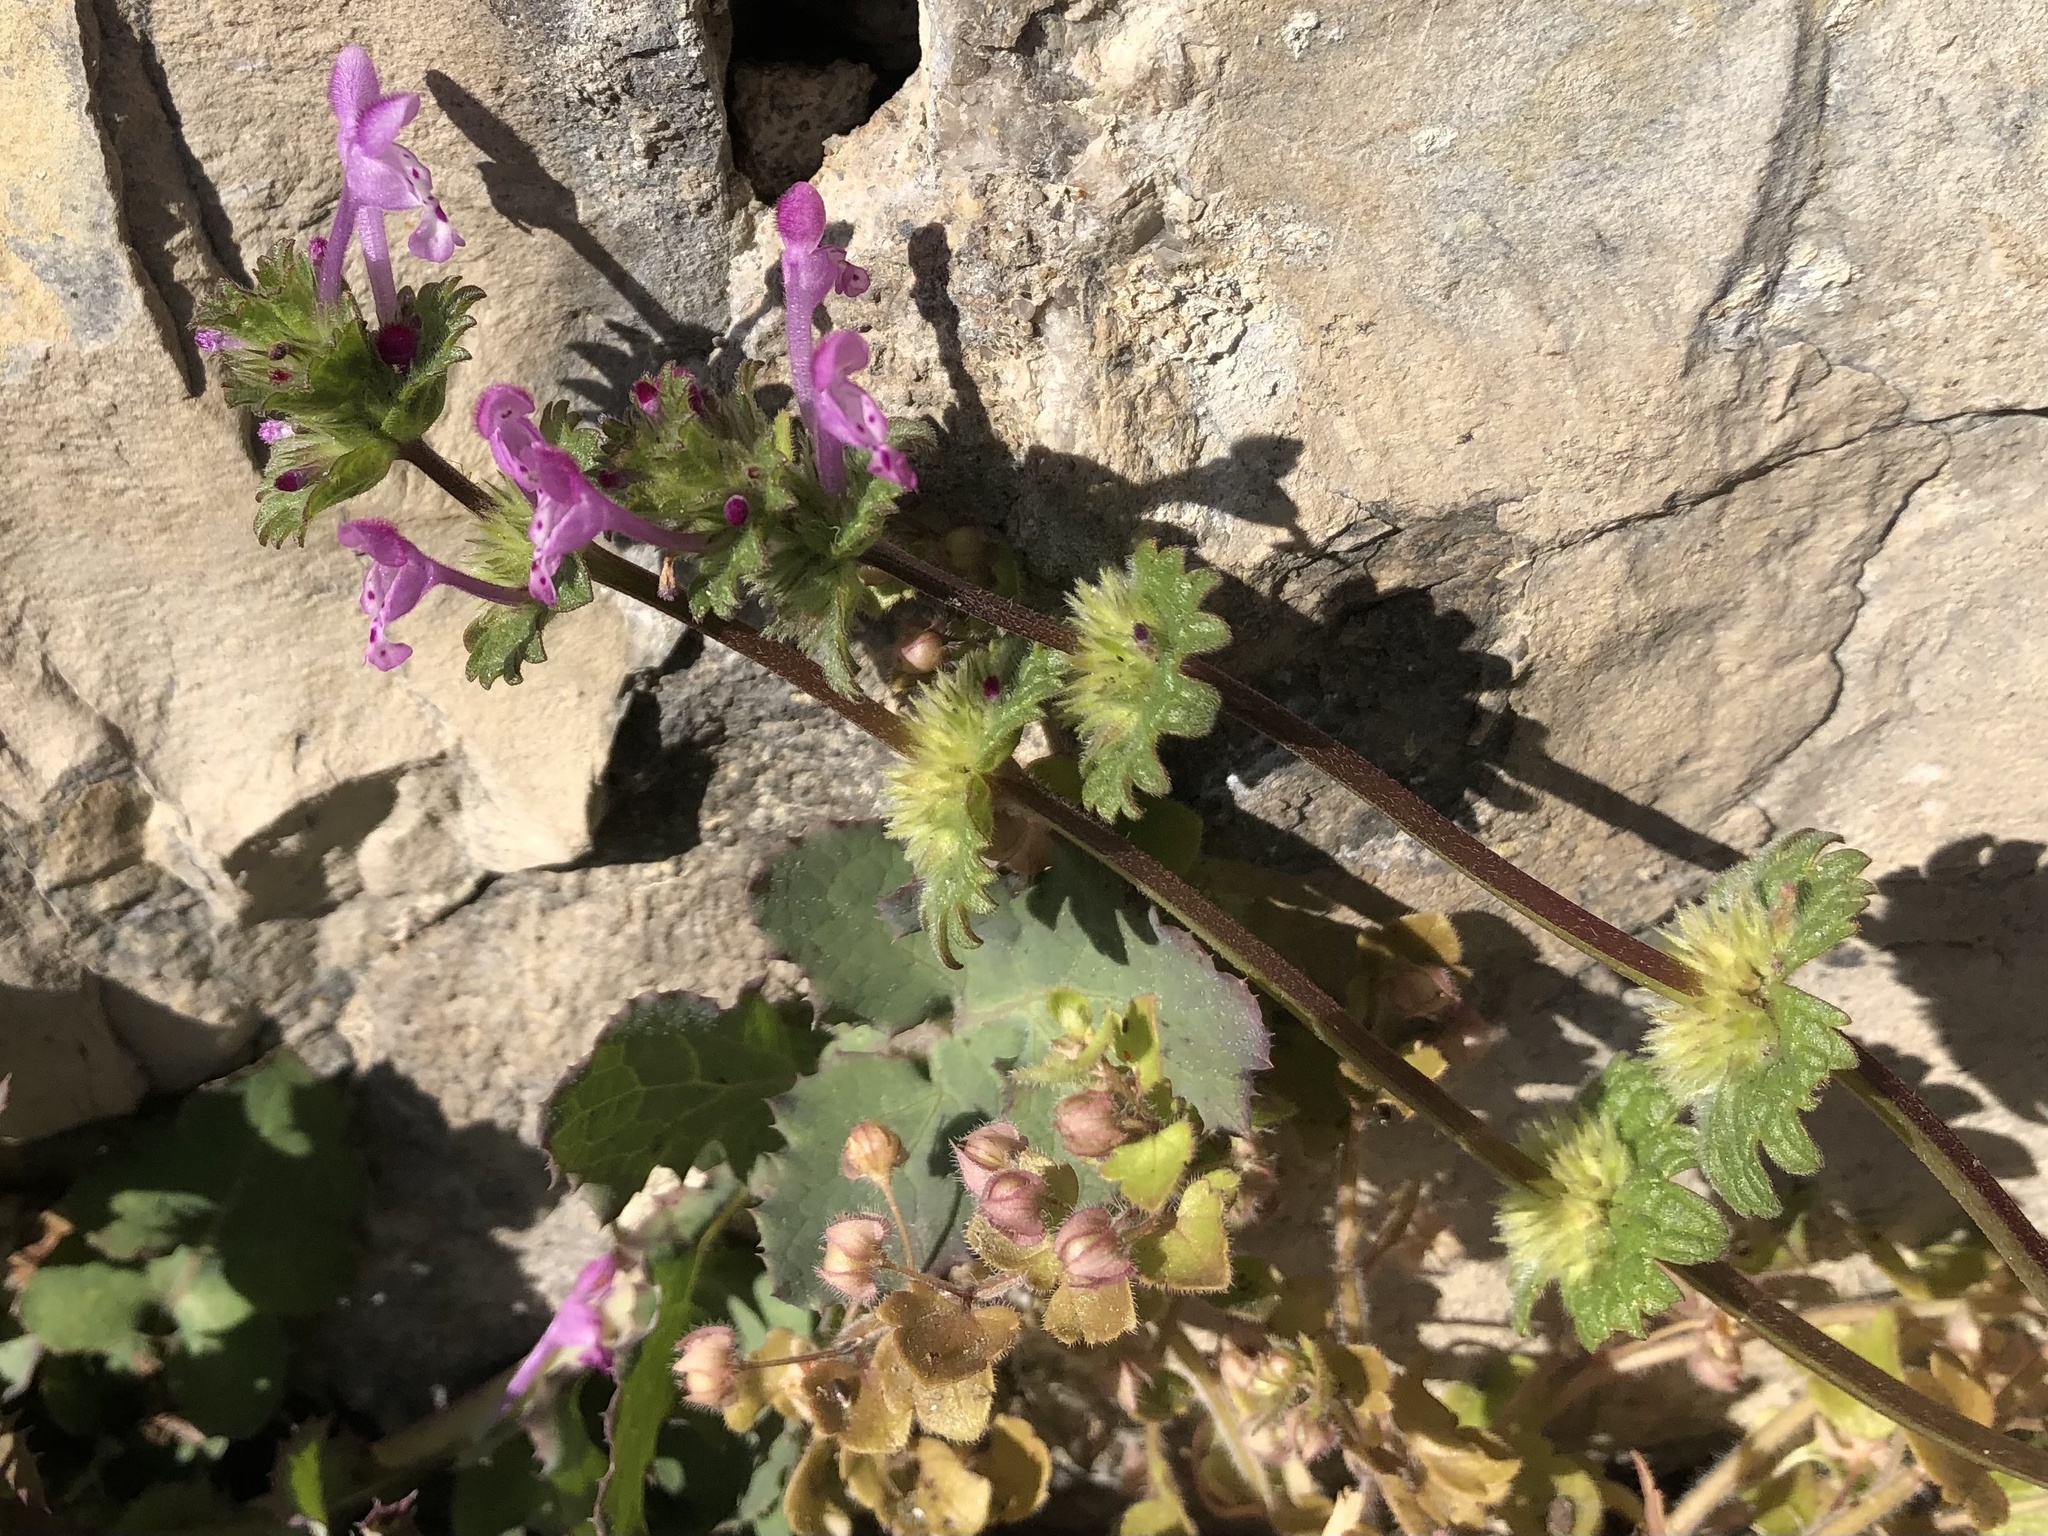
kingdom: Plantae
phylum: Tracheophyta
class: Magnoliopsida
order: Lamiales
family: Lamiaceae
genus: Lamium
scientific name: Lamium amplexicaule
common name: Henbit dead-nettle
